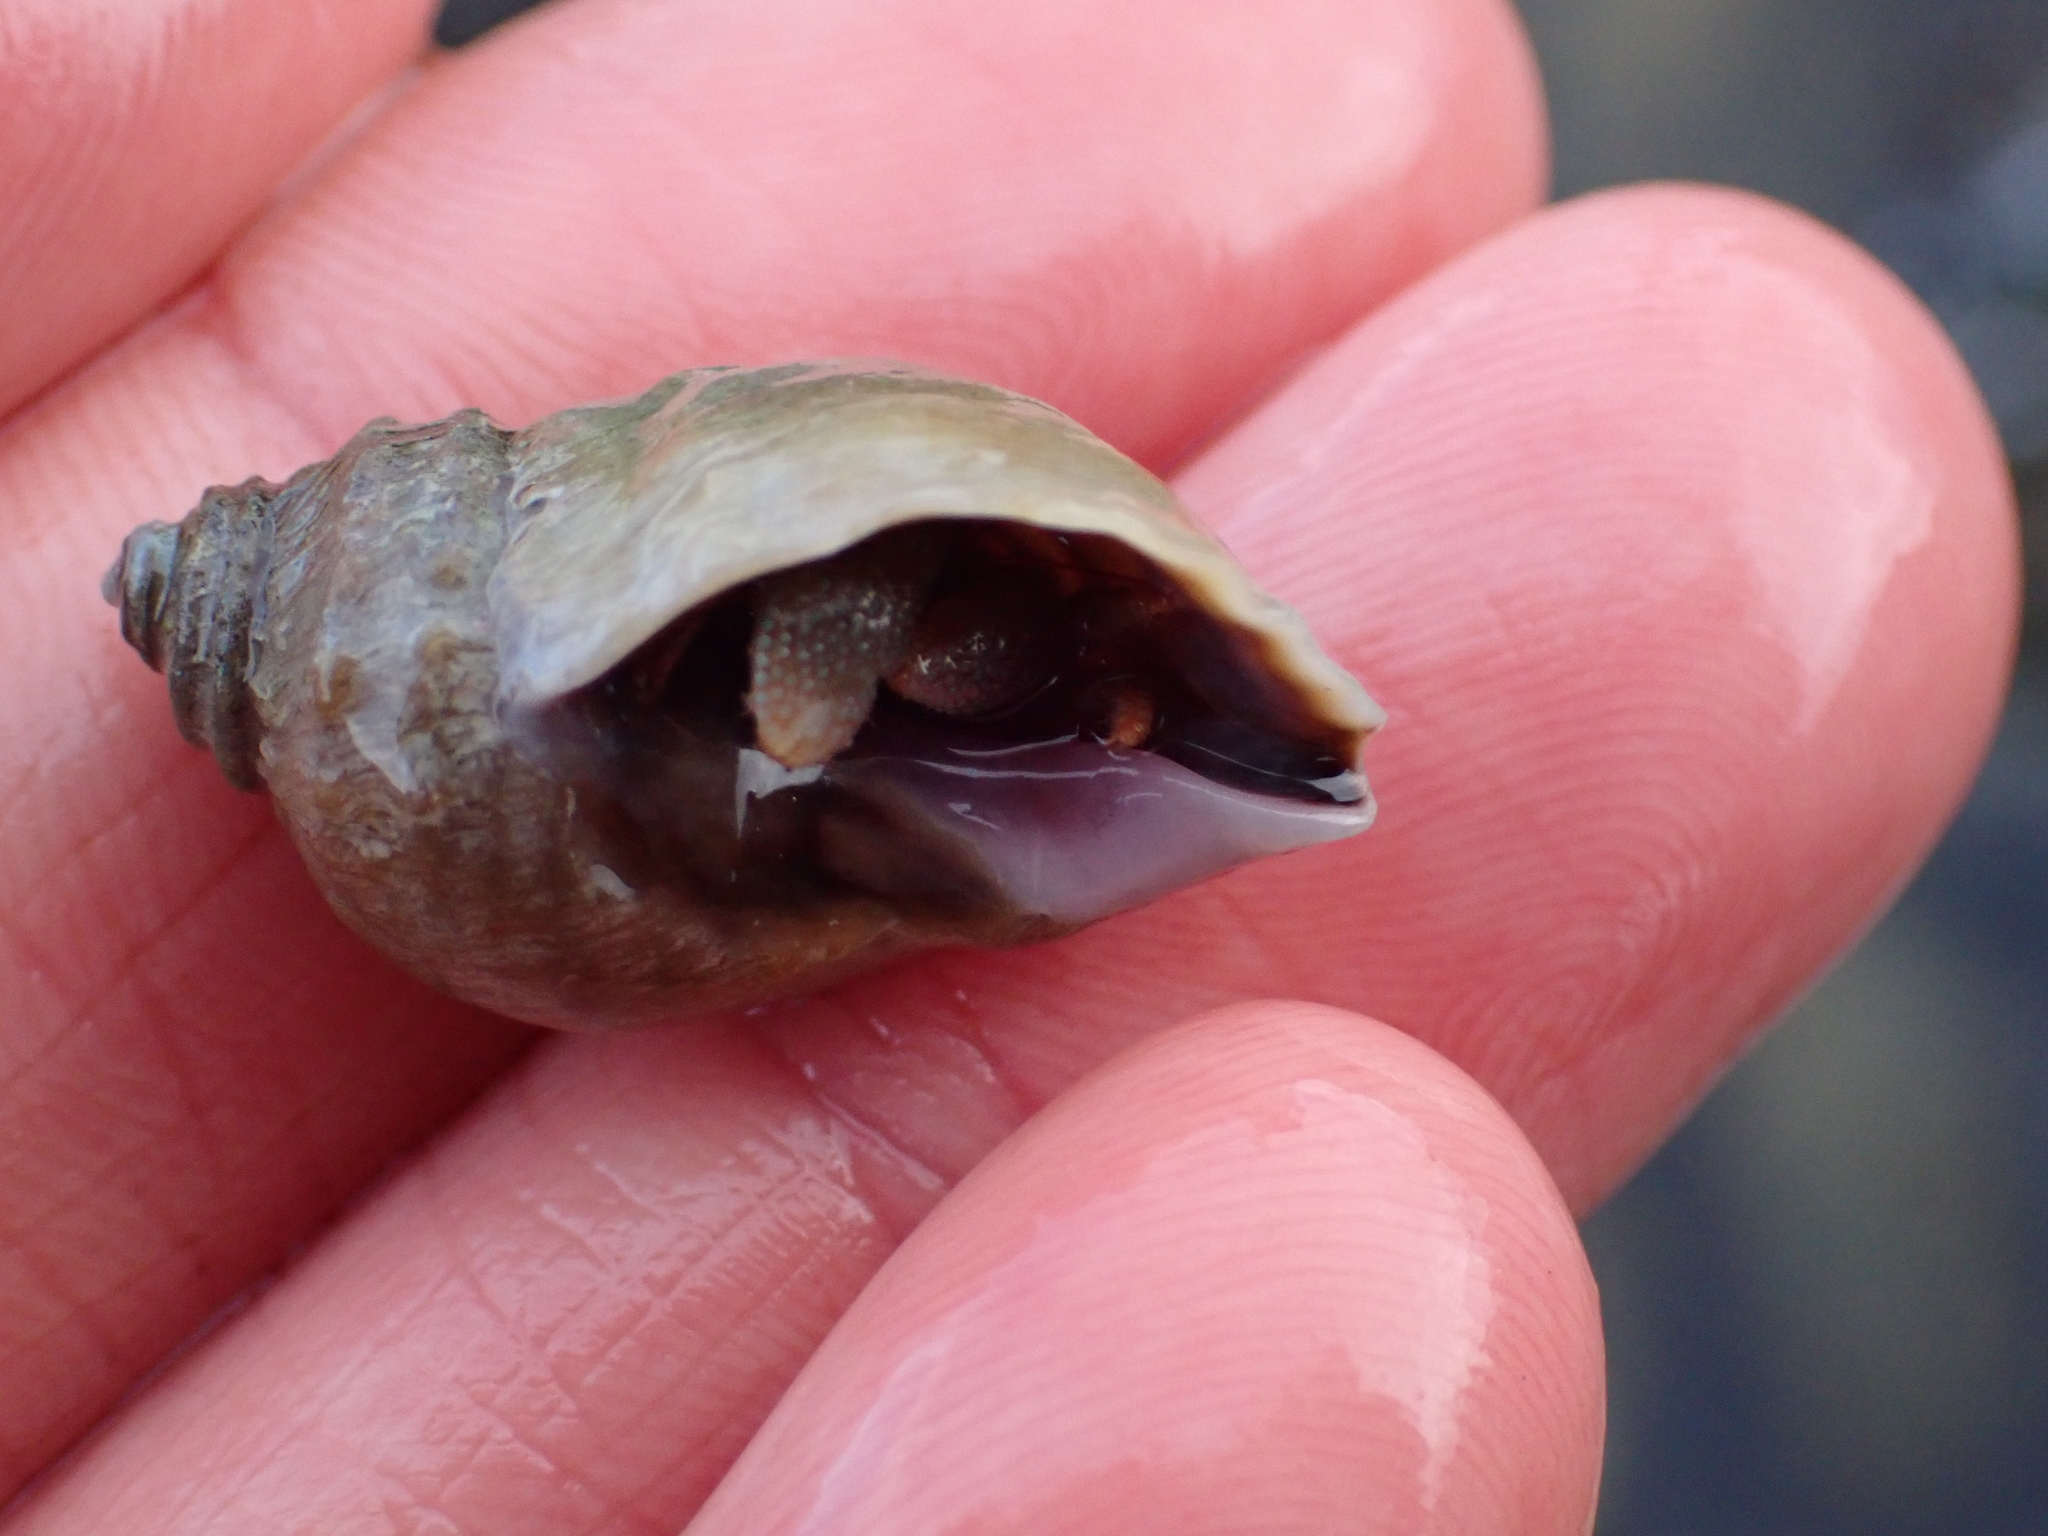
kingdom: Animalia
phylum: Arthropoda
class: Malacostraca
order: Decapoda
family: Paguridae
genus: Pagurus
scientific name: Pagurus granosimanus
